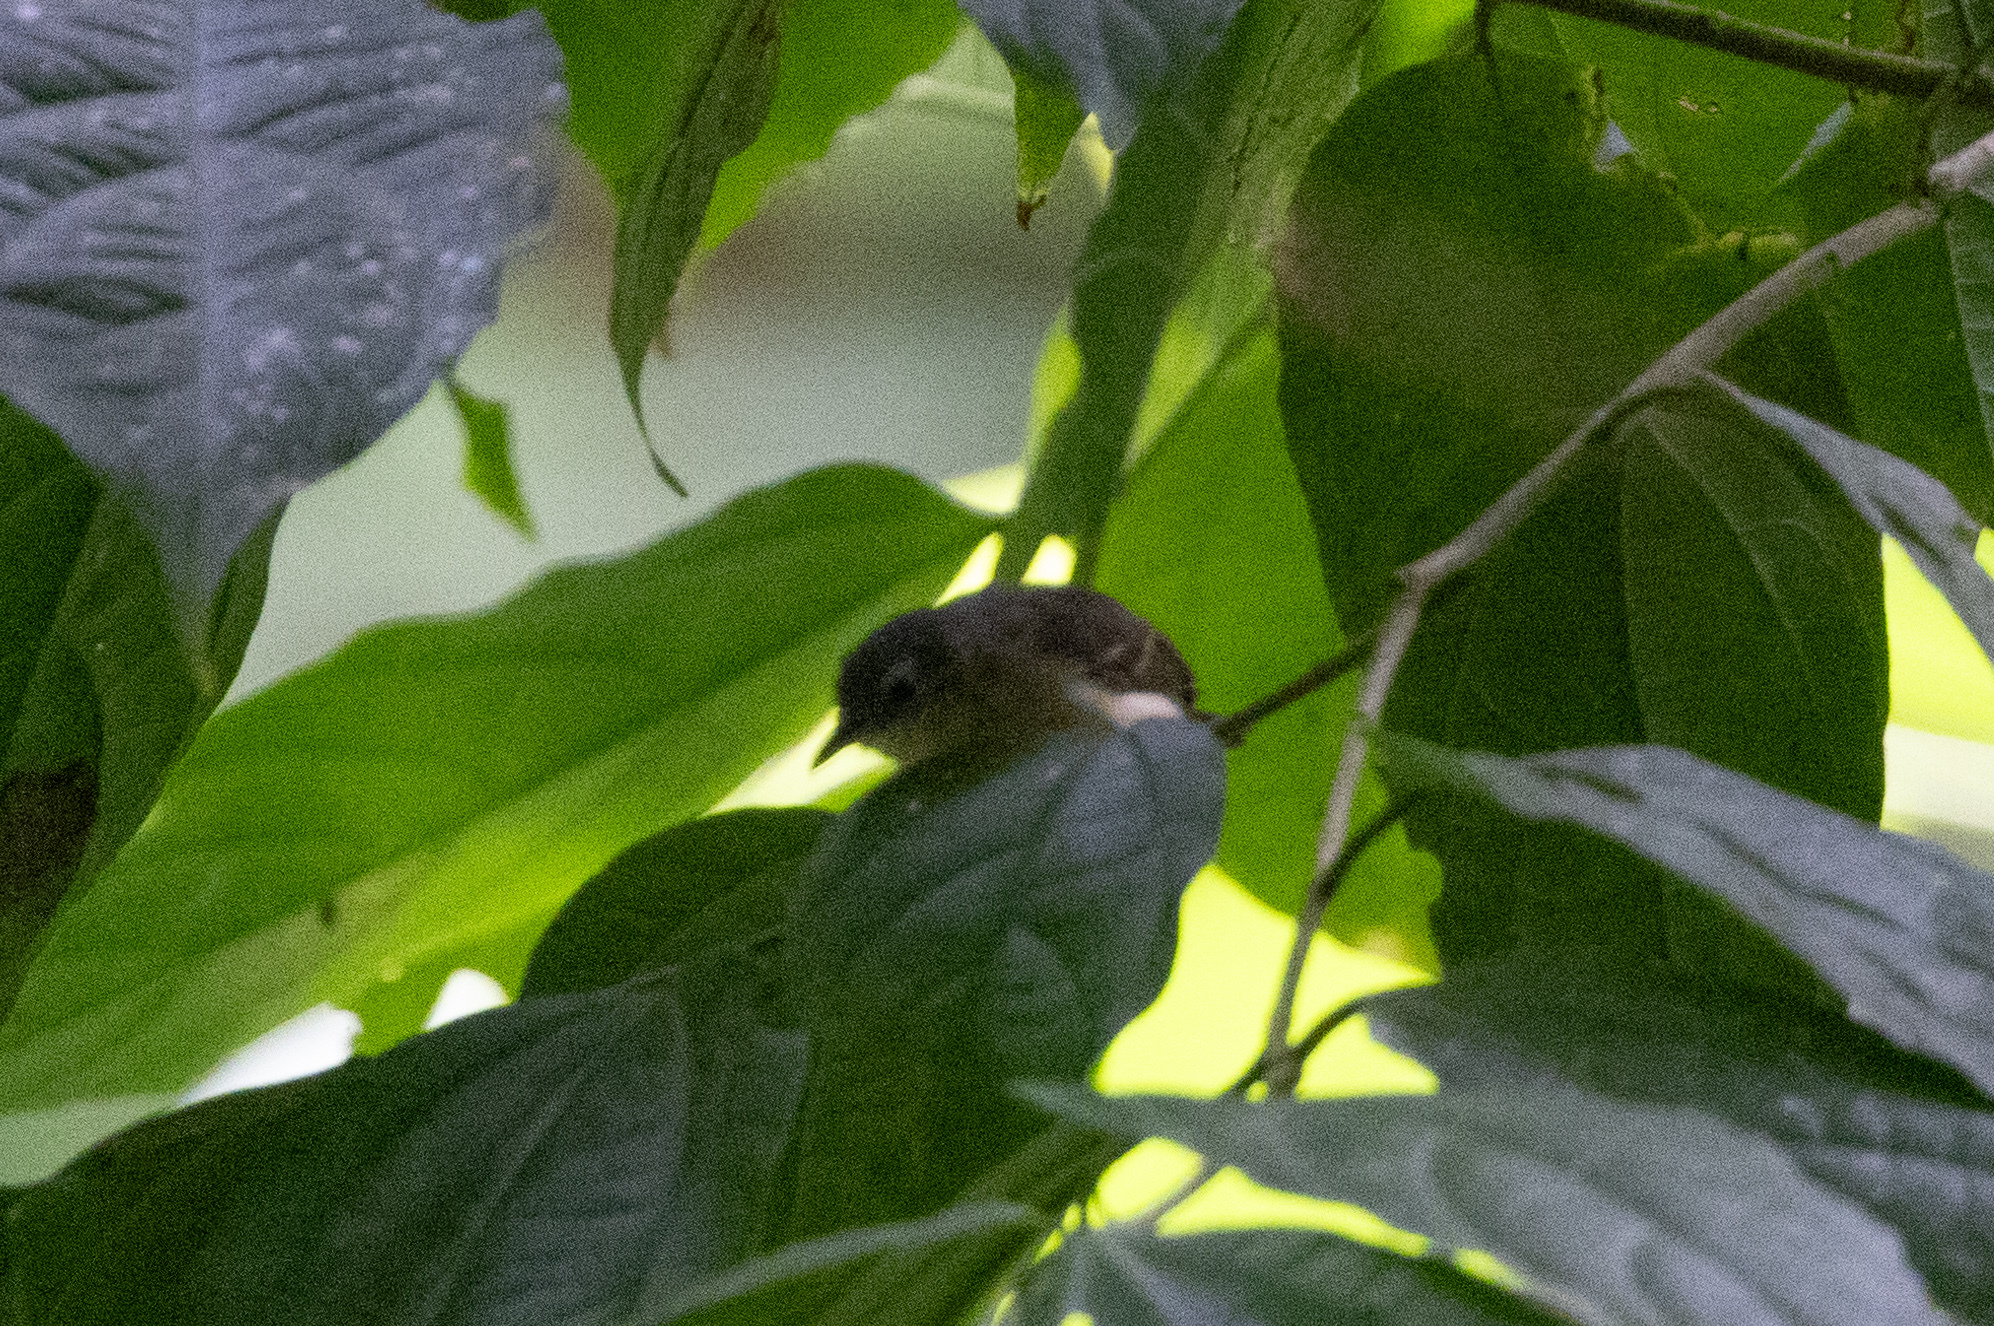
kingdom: Animalia
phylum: Chordata
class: Aves
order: Passeriformes
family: Thamnophilidae
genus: Myrmotherula
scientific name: Myrmotherula axillaris
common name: White-flanked antwren
